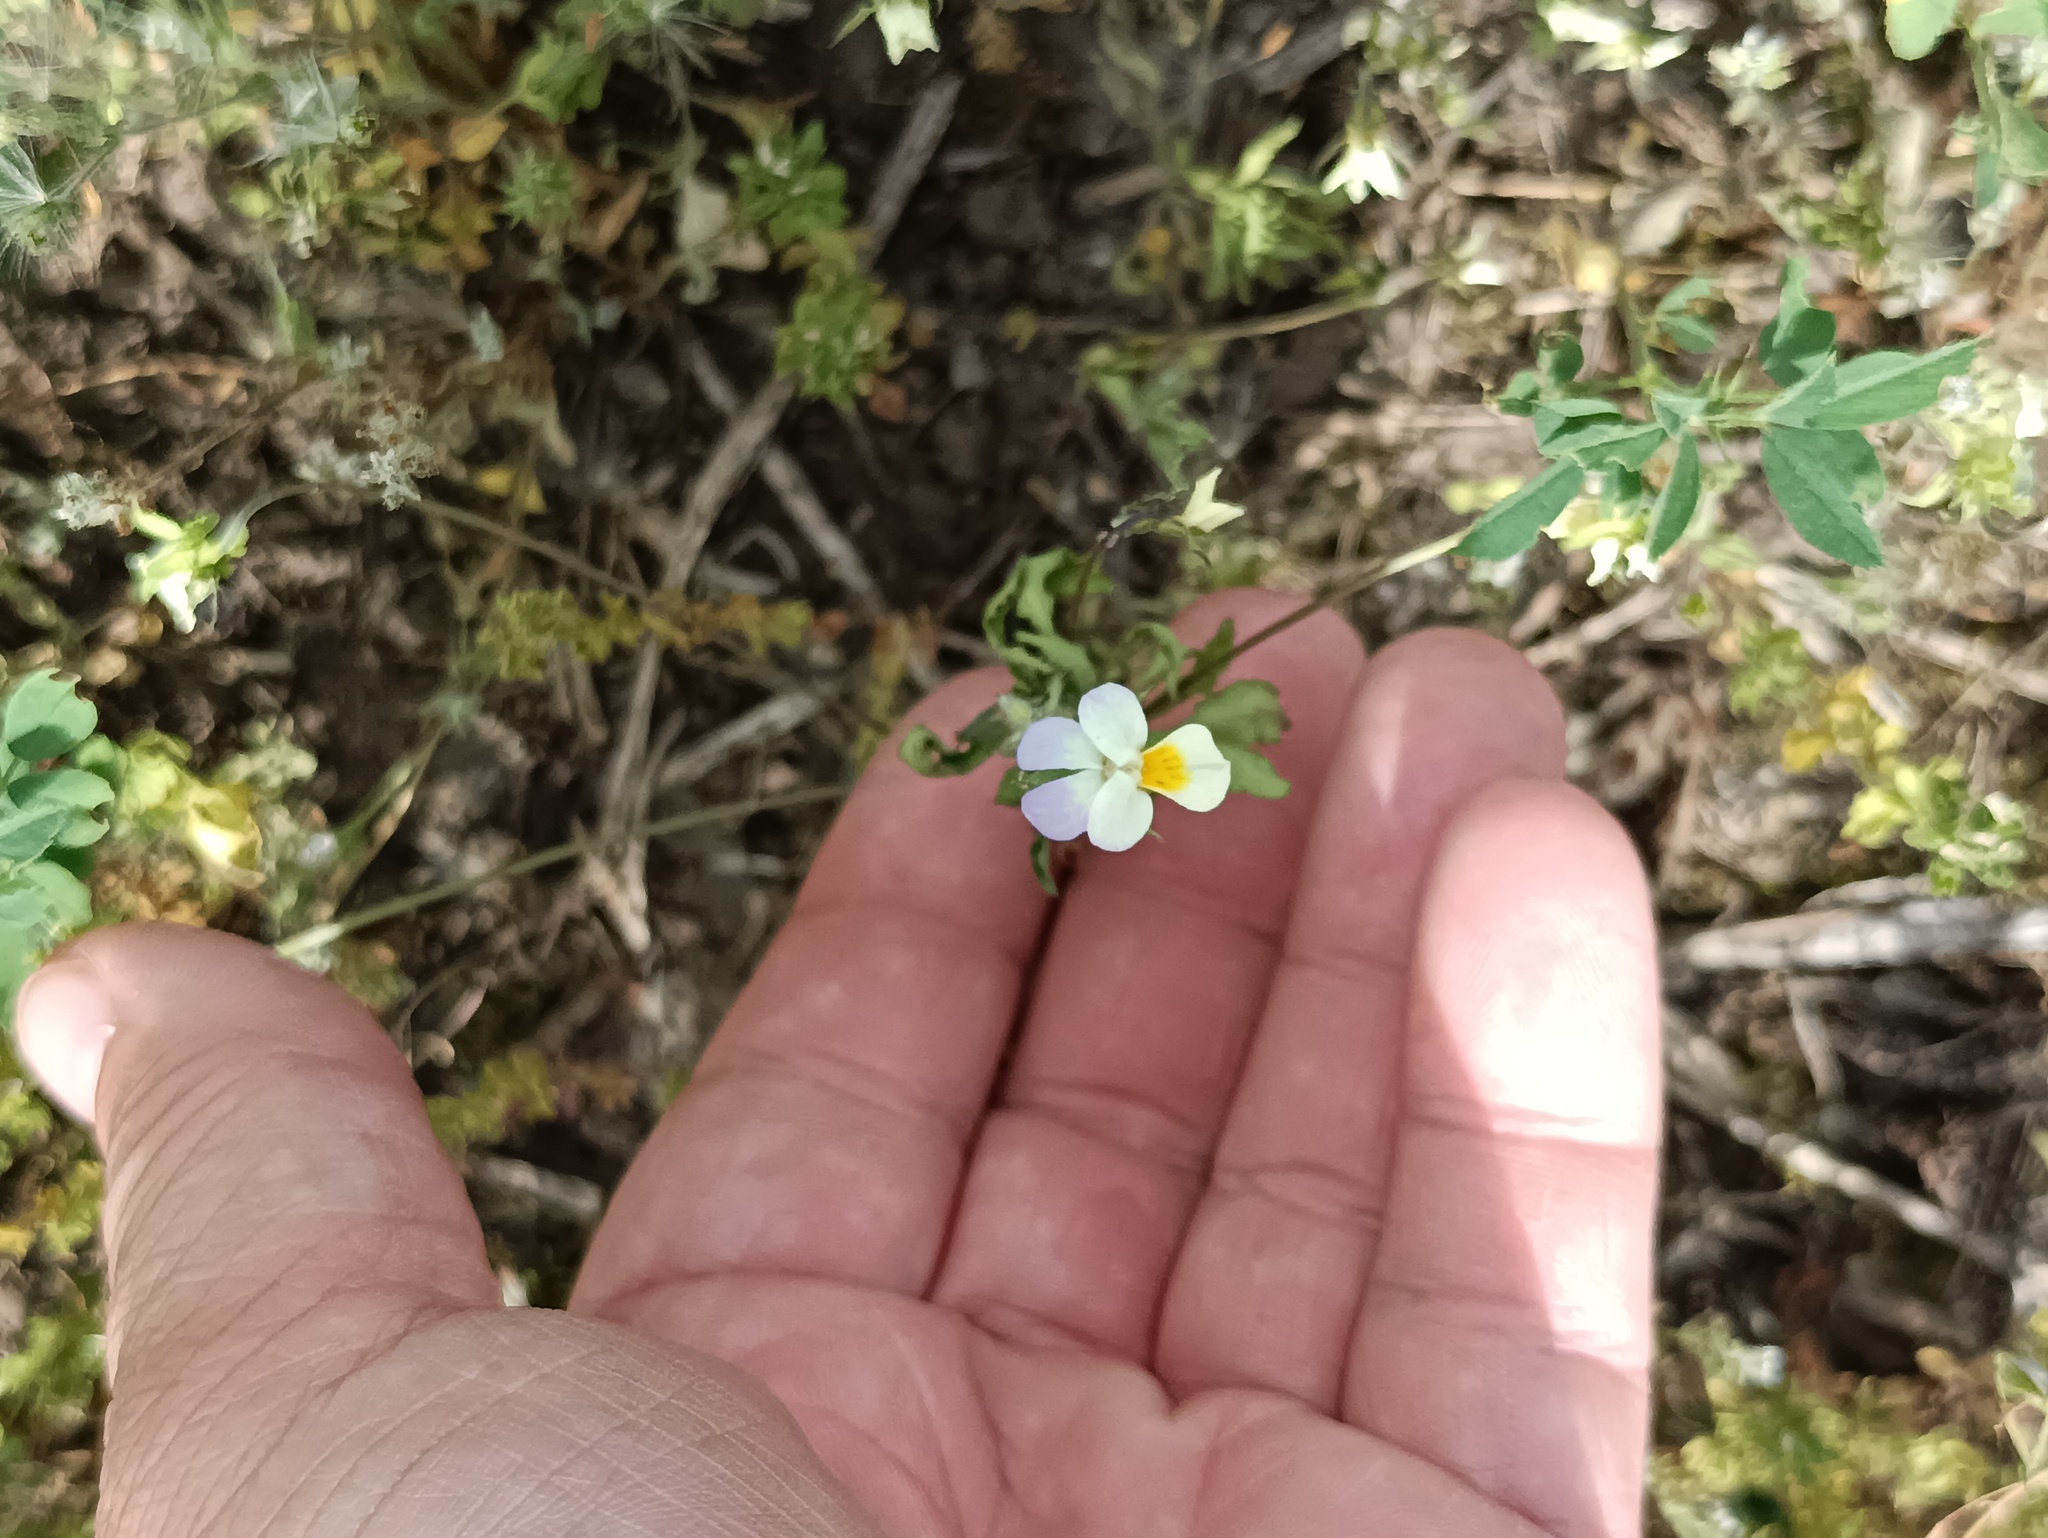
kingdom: Plantae
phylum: Tracheophyta
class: Magnoliopsida
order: Malpighiales
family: Violaceae
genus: Viola
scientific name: Viola contempta
